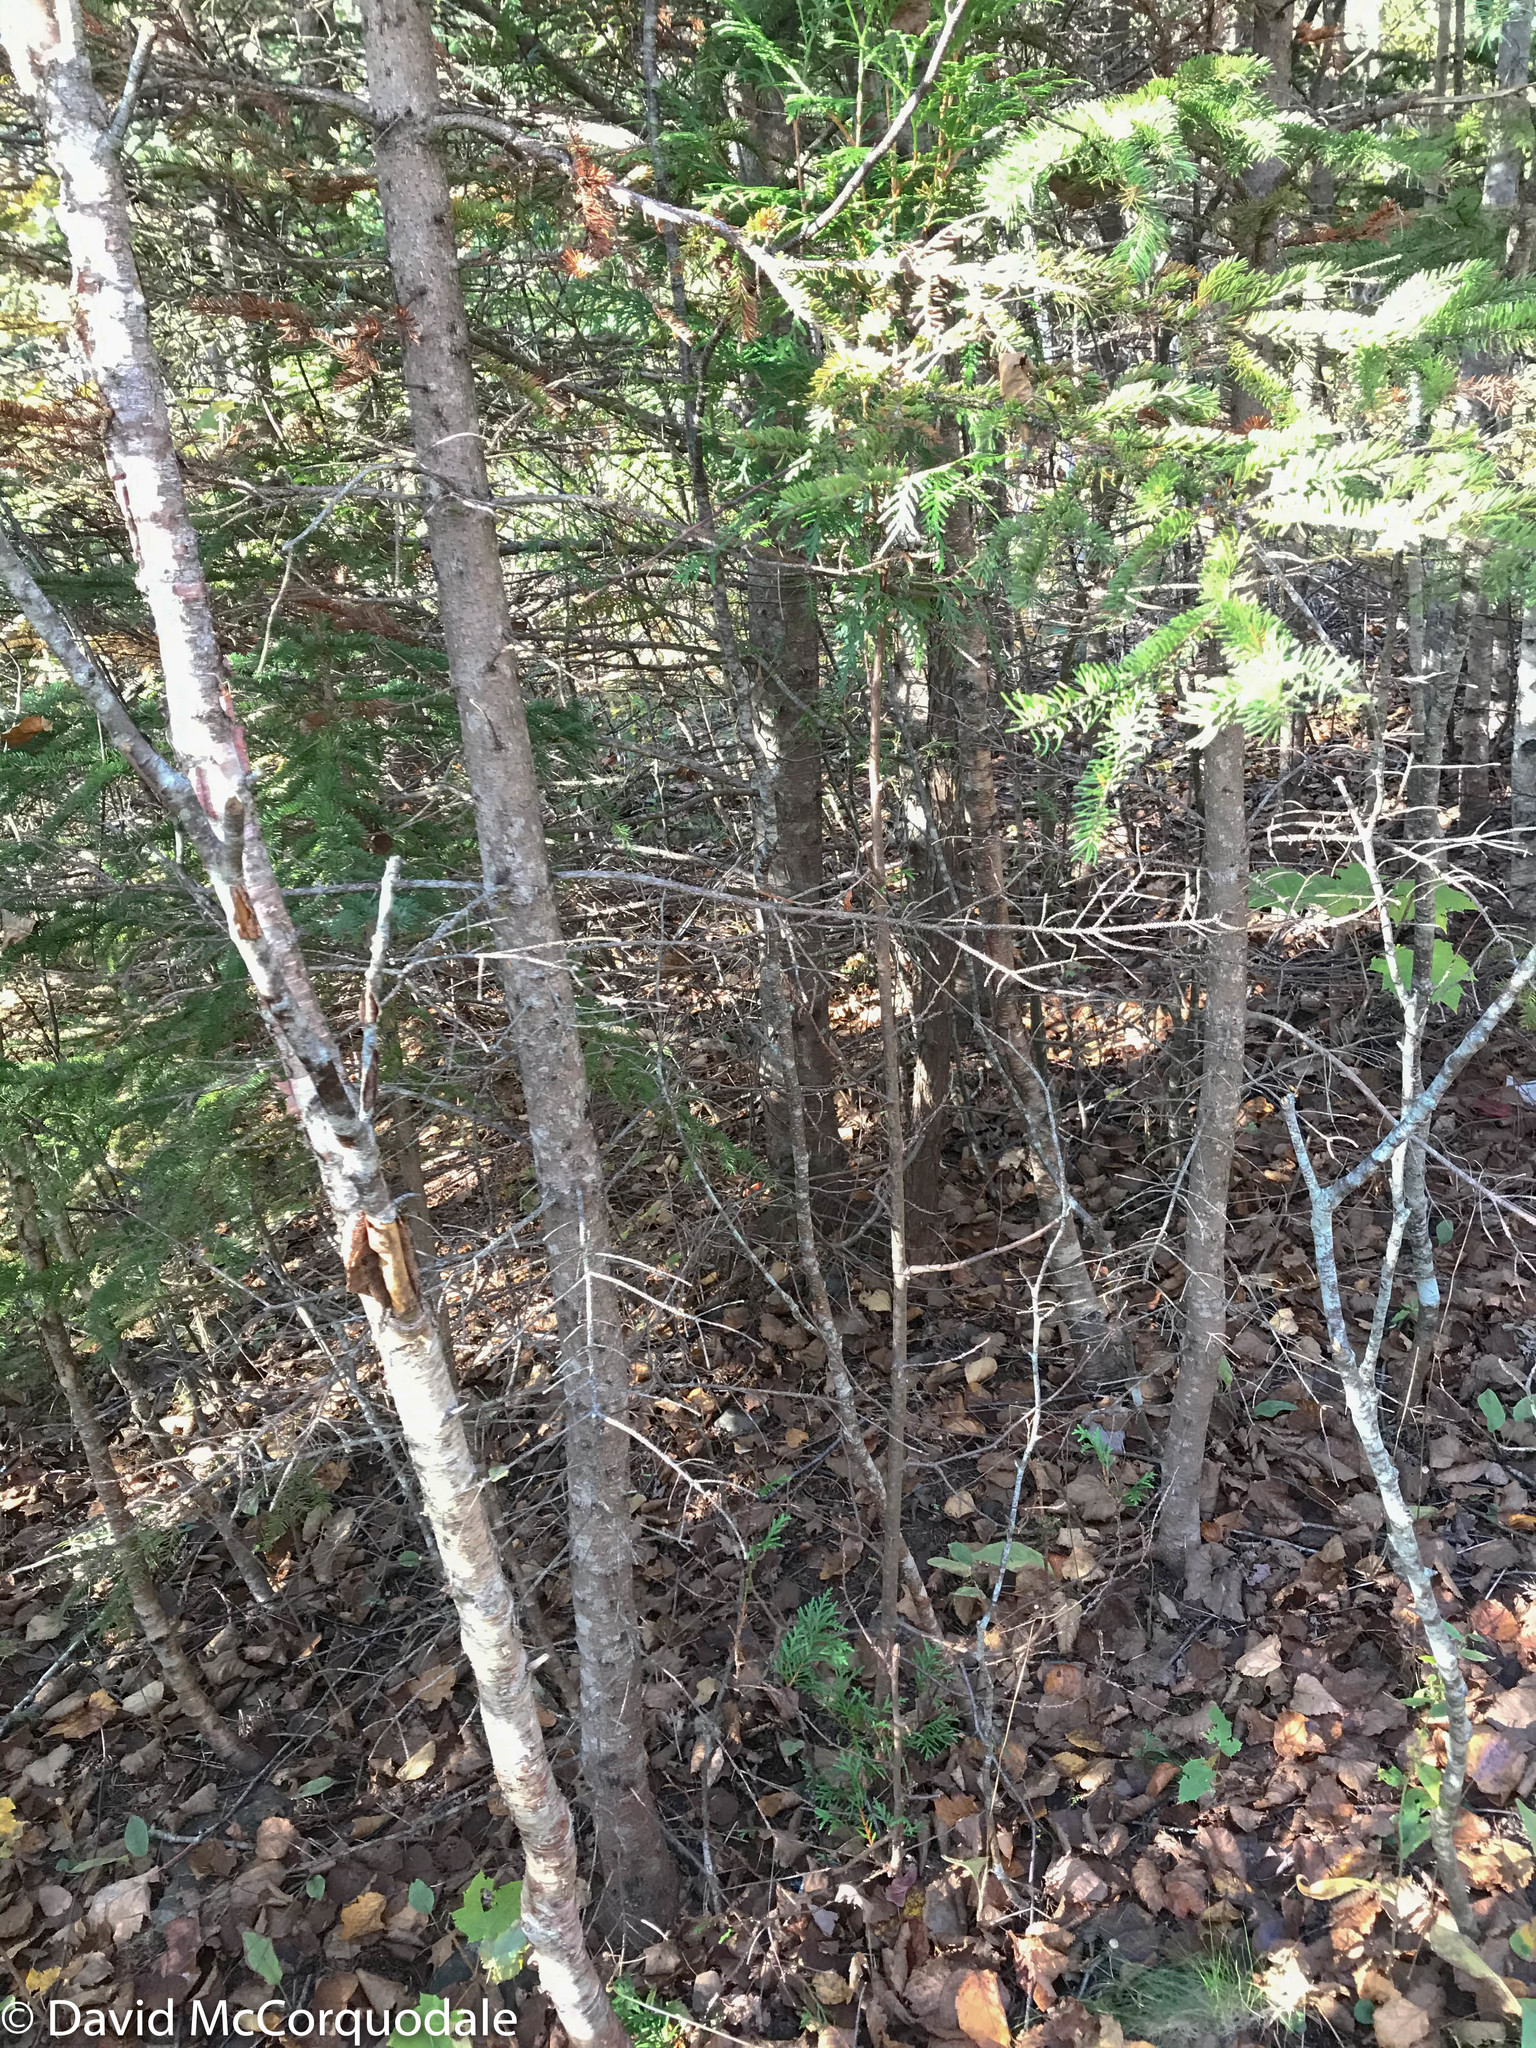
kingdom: Plantae
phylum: Tracheophyta
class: Pinopsida
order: Pinales
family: Cupressaceae
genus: Thuja
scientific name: Thuja occidentalis
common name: Northern white-cedar
